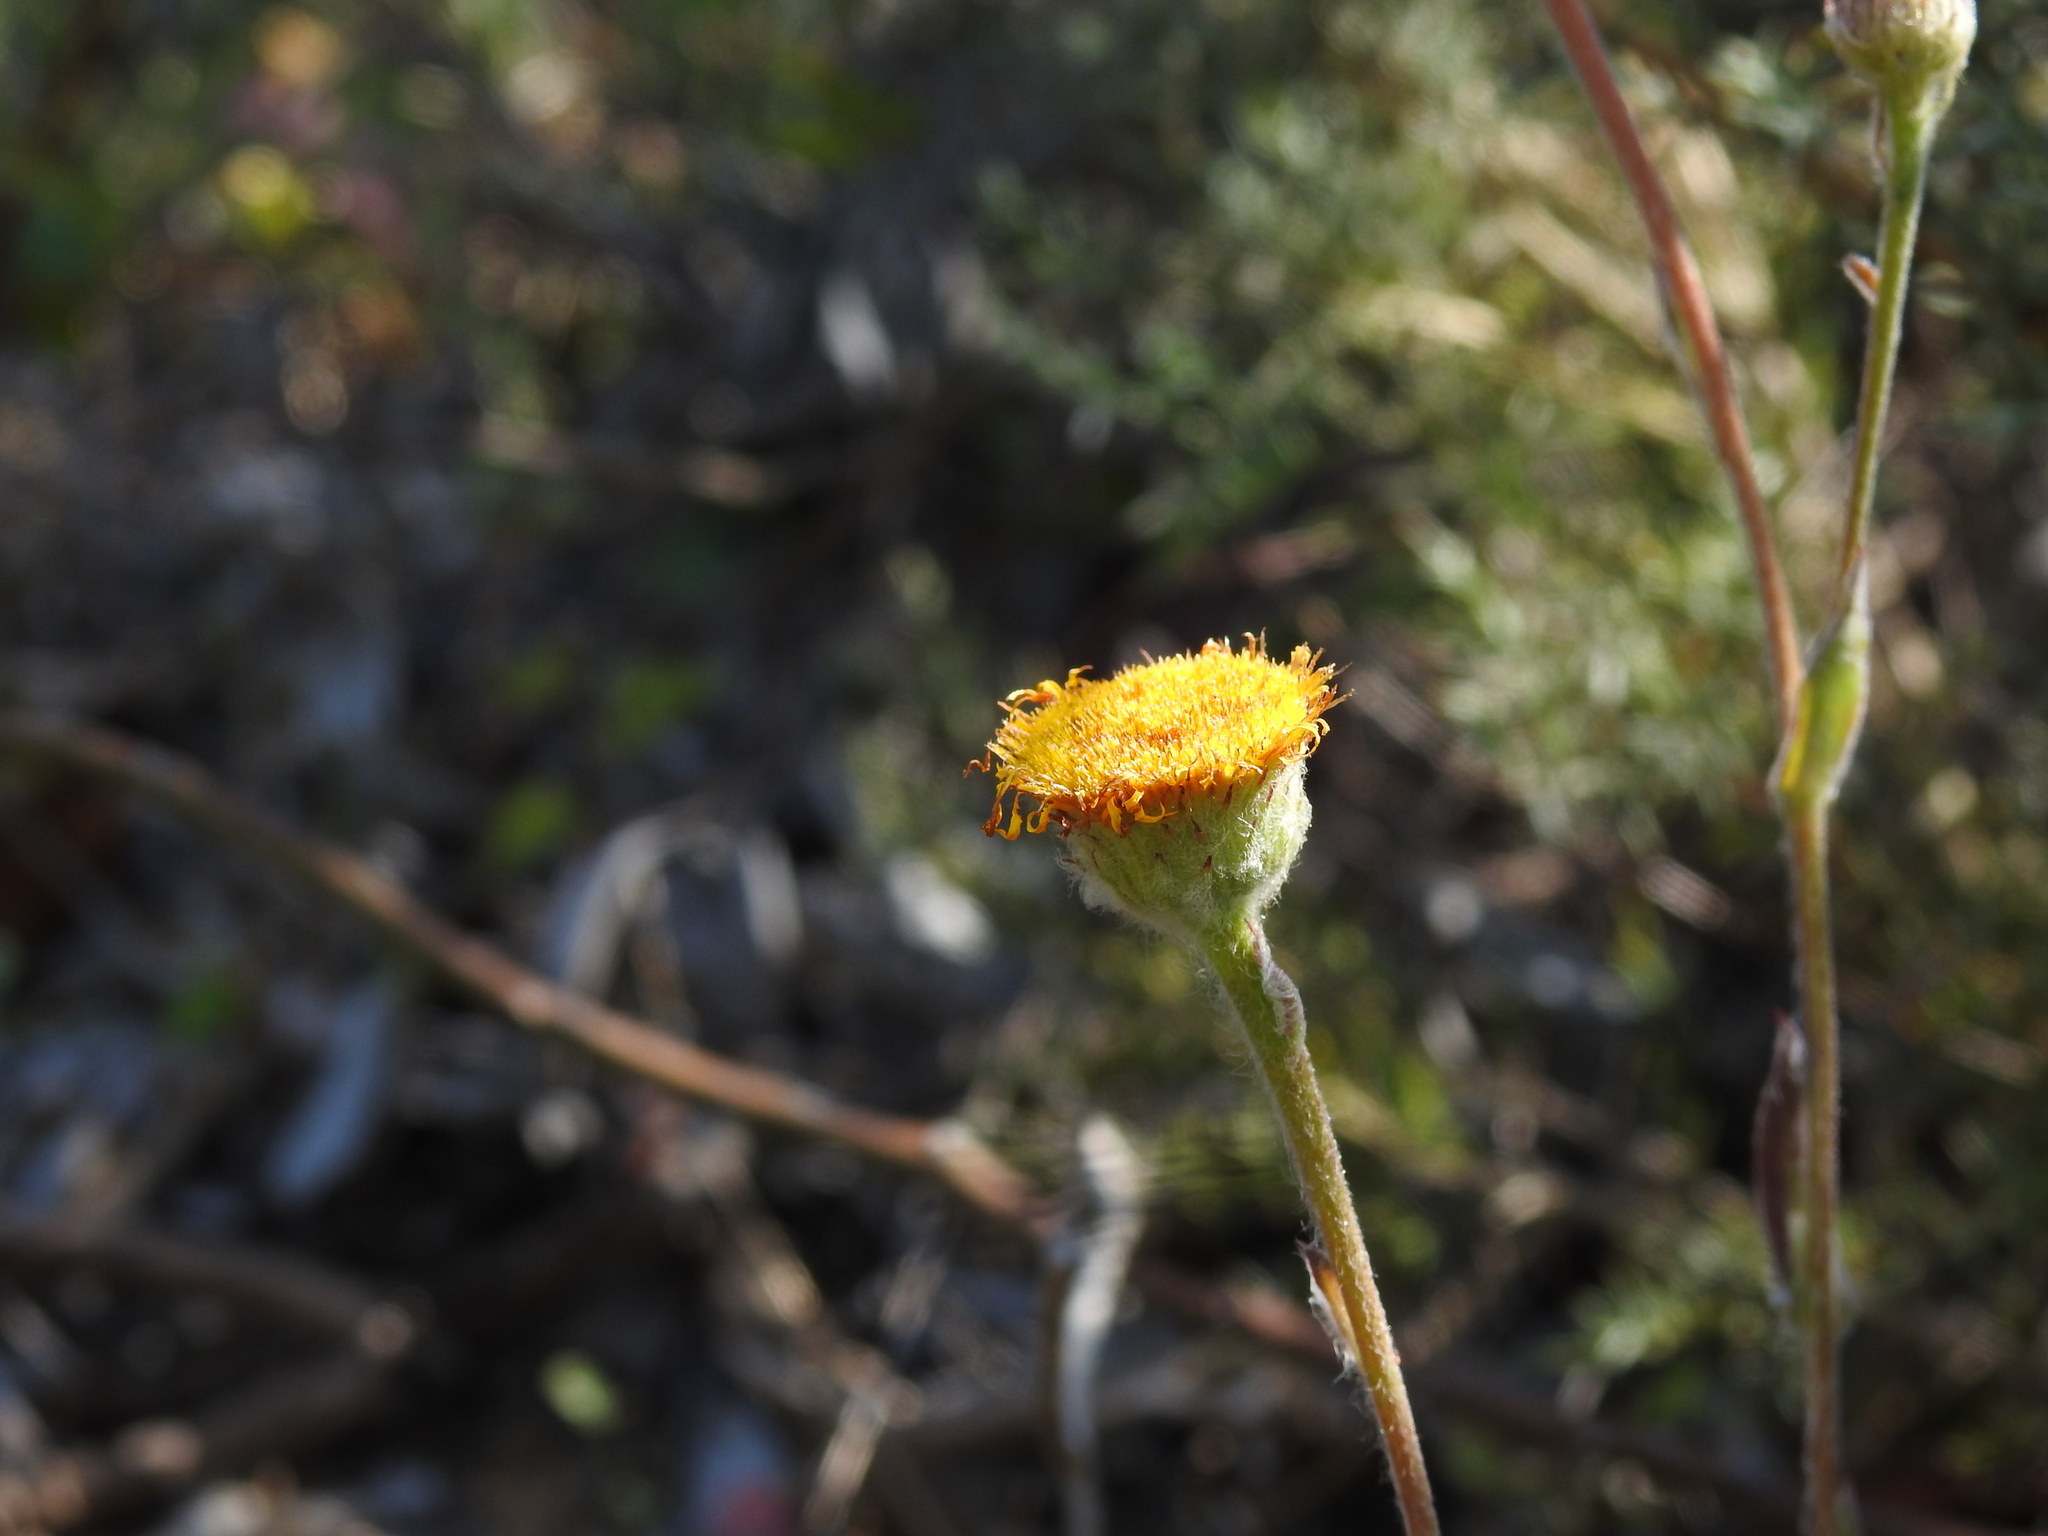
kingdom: Plantae
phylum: Tracheophyta
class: Magnoliopsida
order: Asterales
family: Asteraceae
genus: Pulicaria
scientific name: Pulicaria odora
